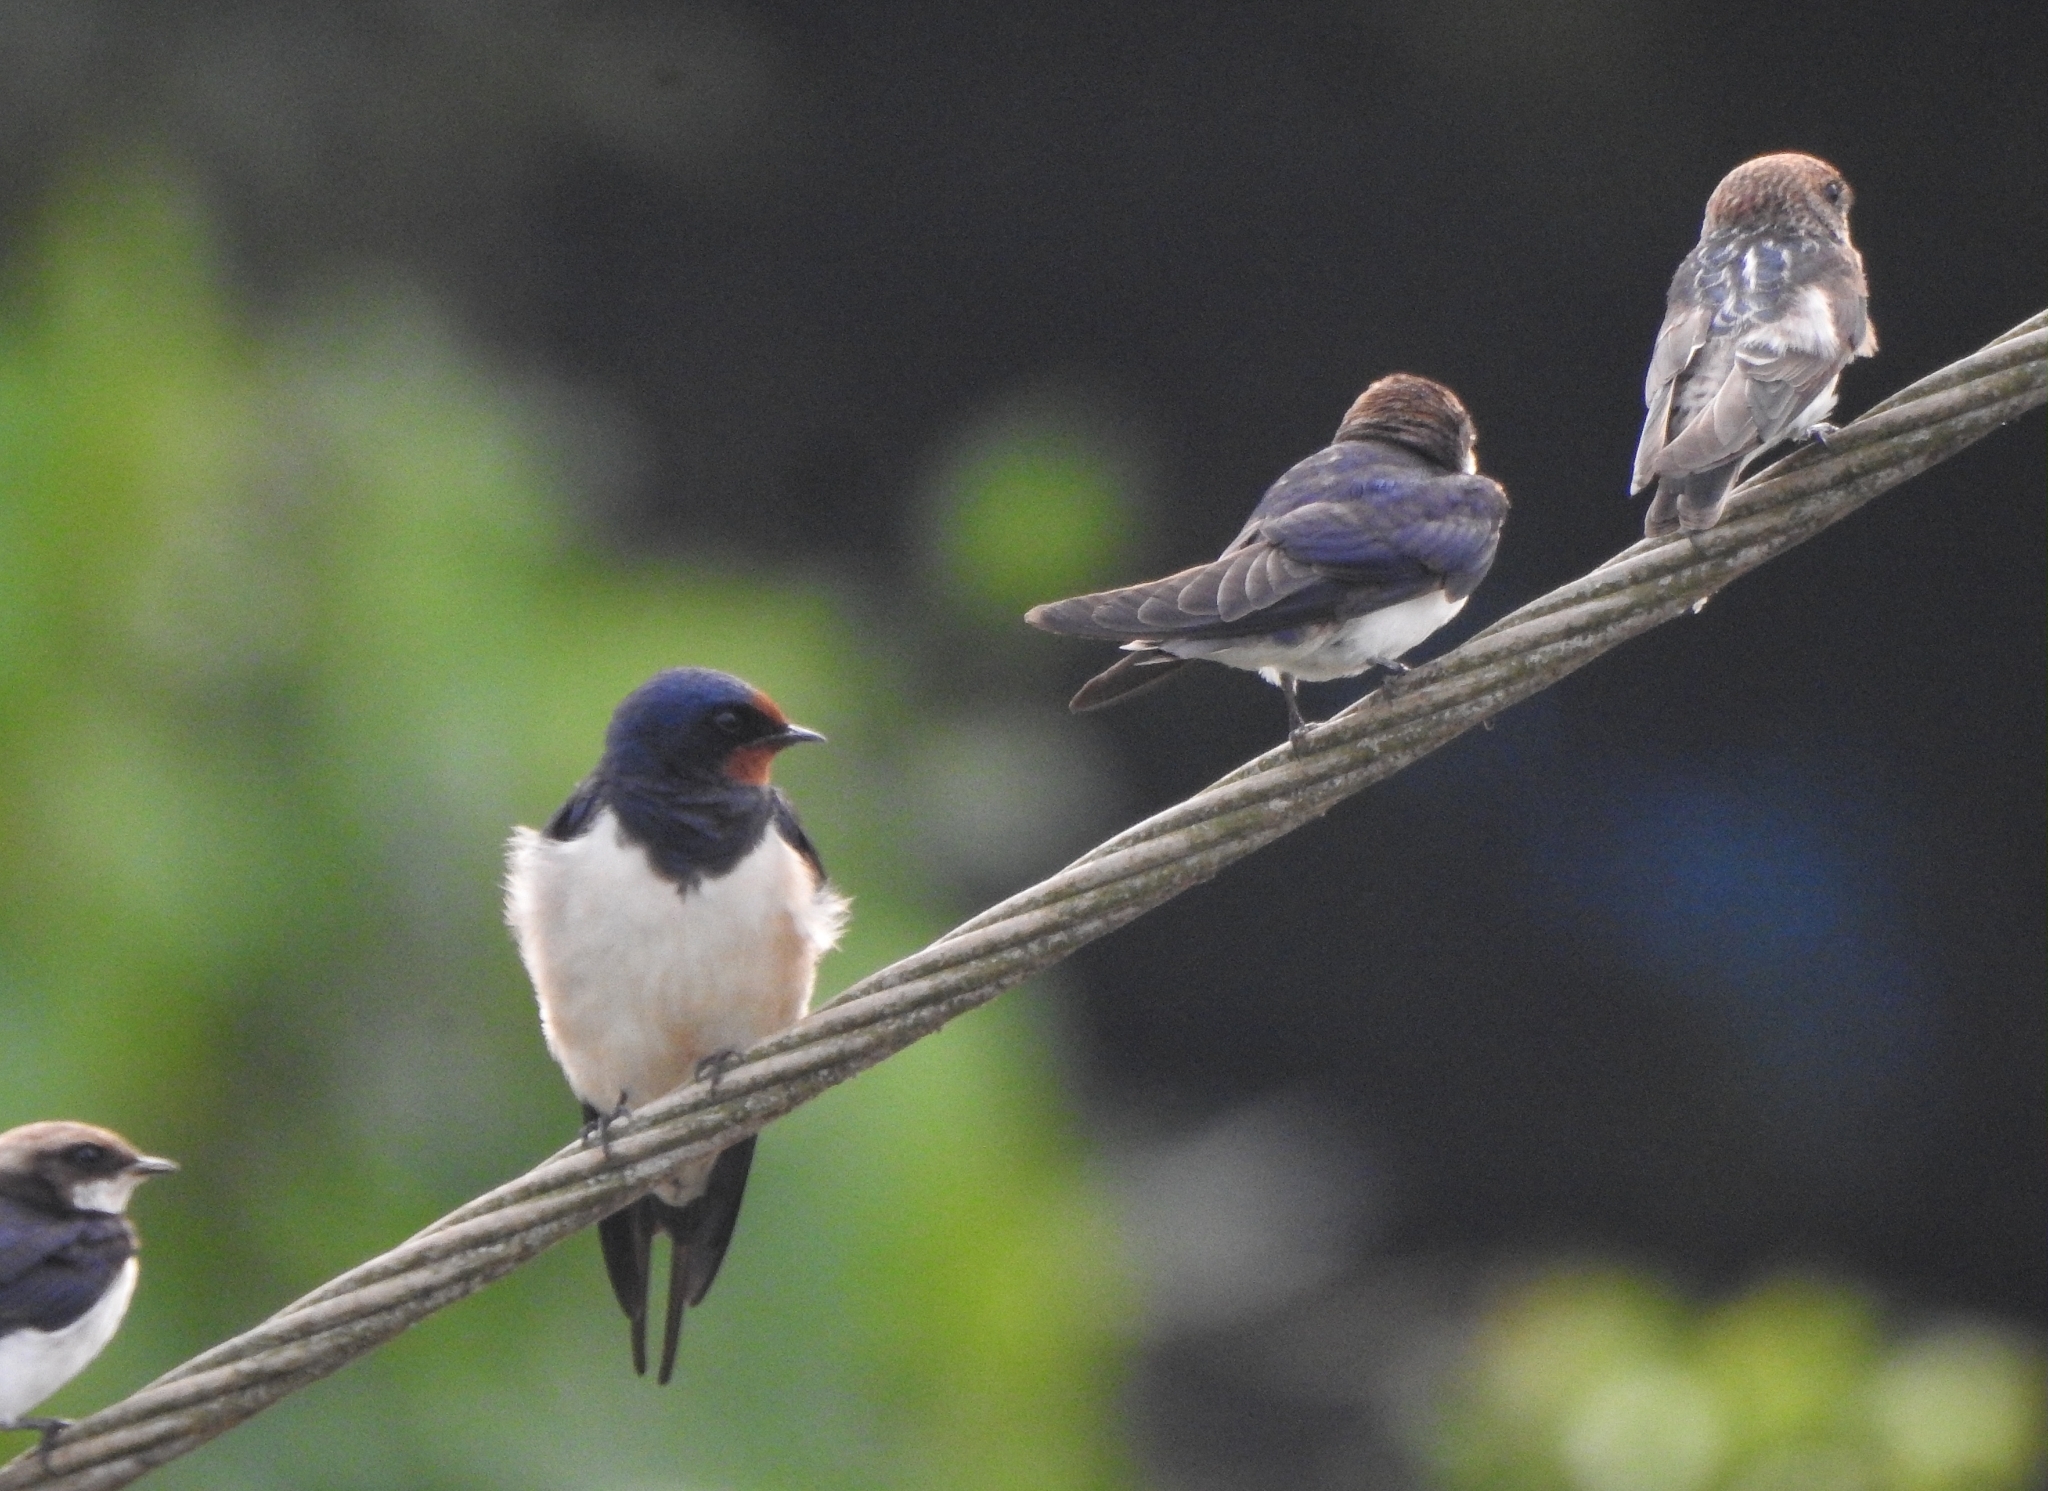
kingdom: Animalia
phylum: Chordata
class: Aves
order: Passeriformes
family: Hirundinidae
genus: Hirundo
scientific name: Hirundo rustica
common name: Barn swallow
